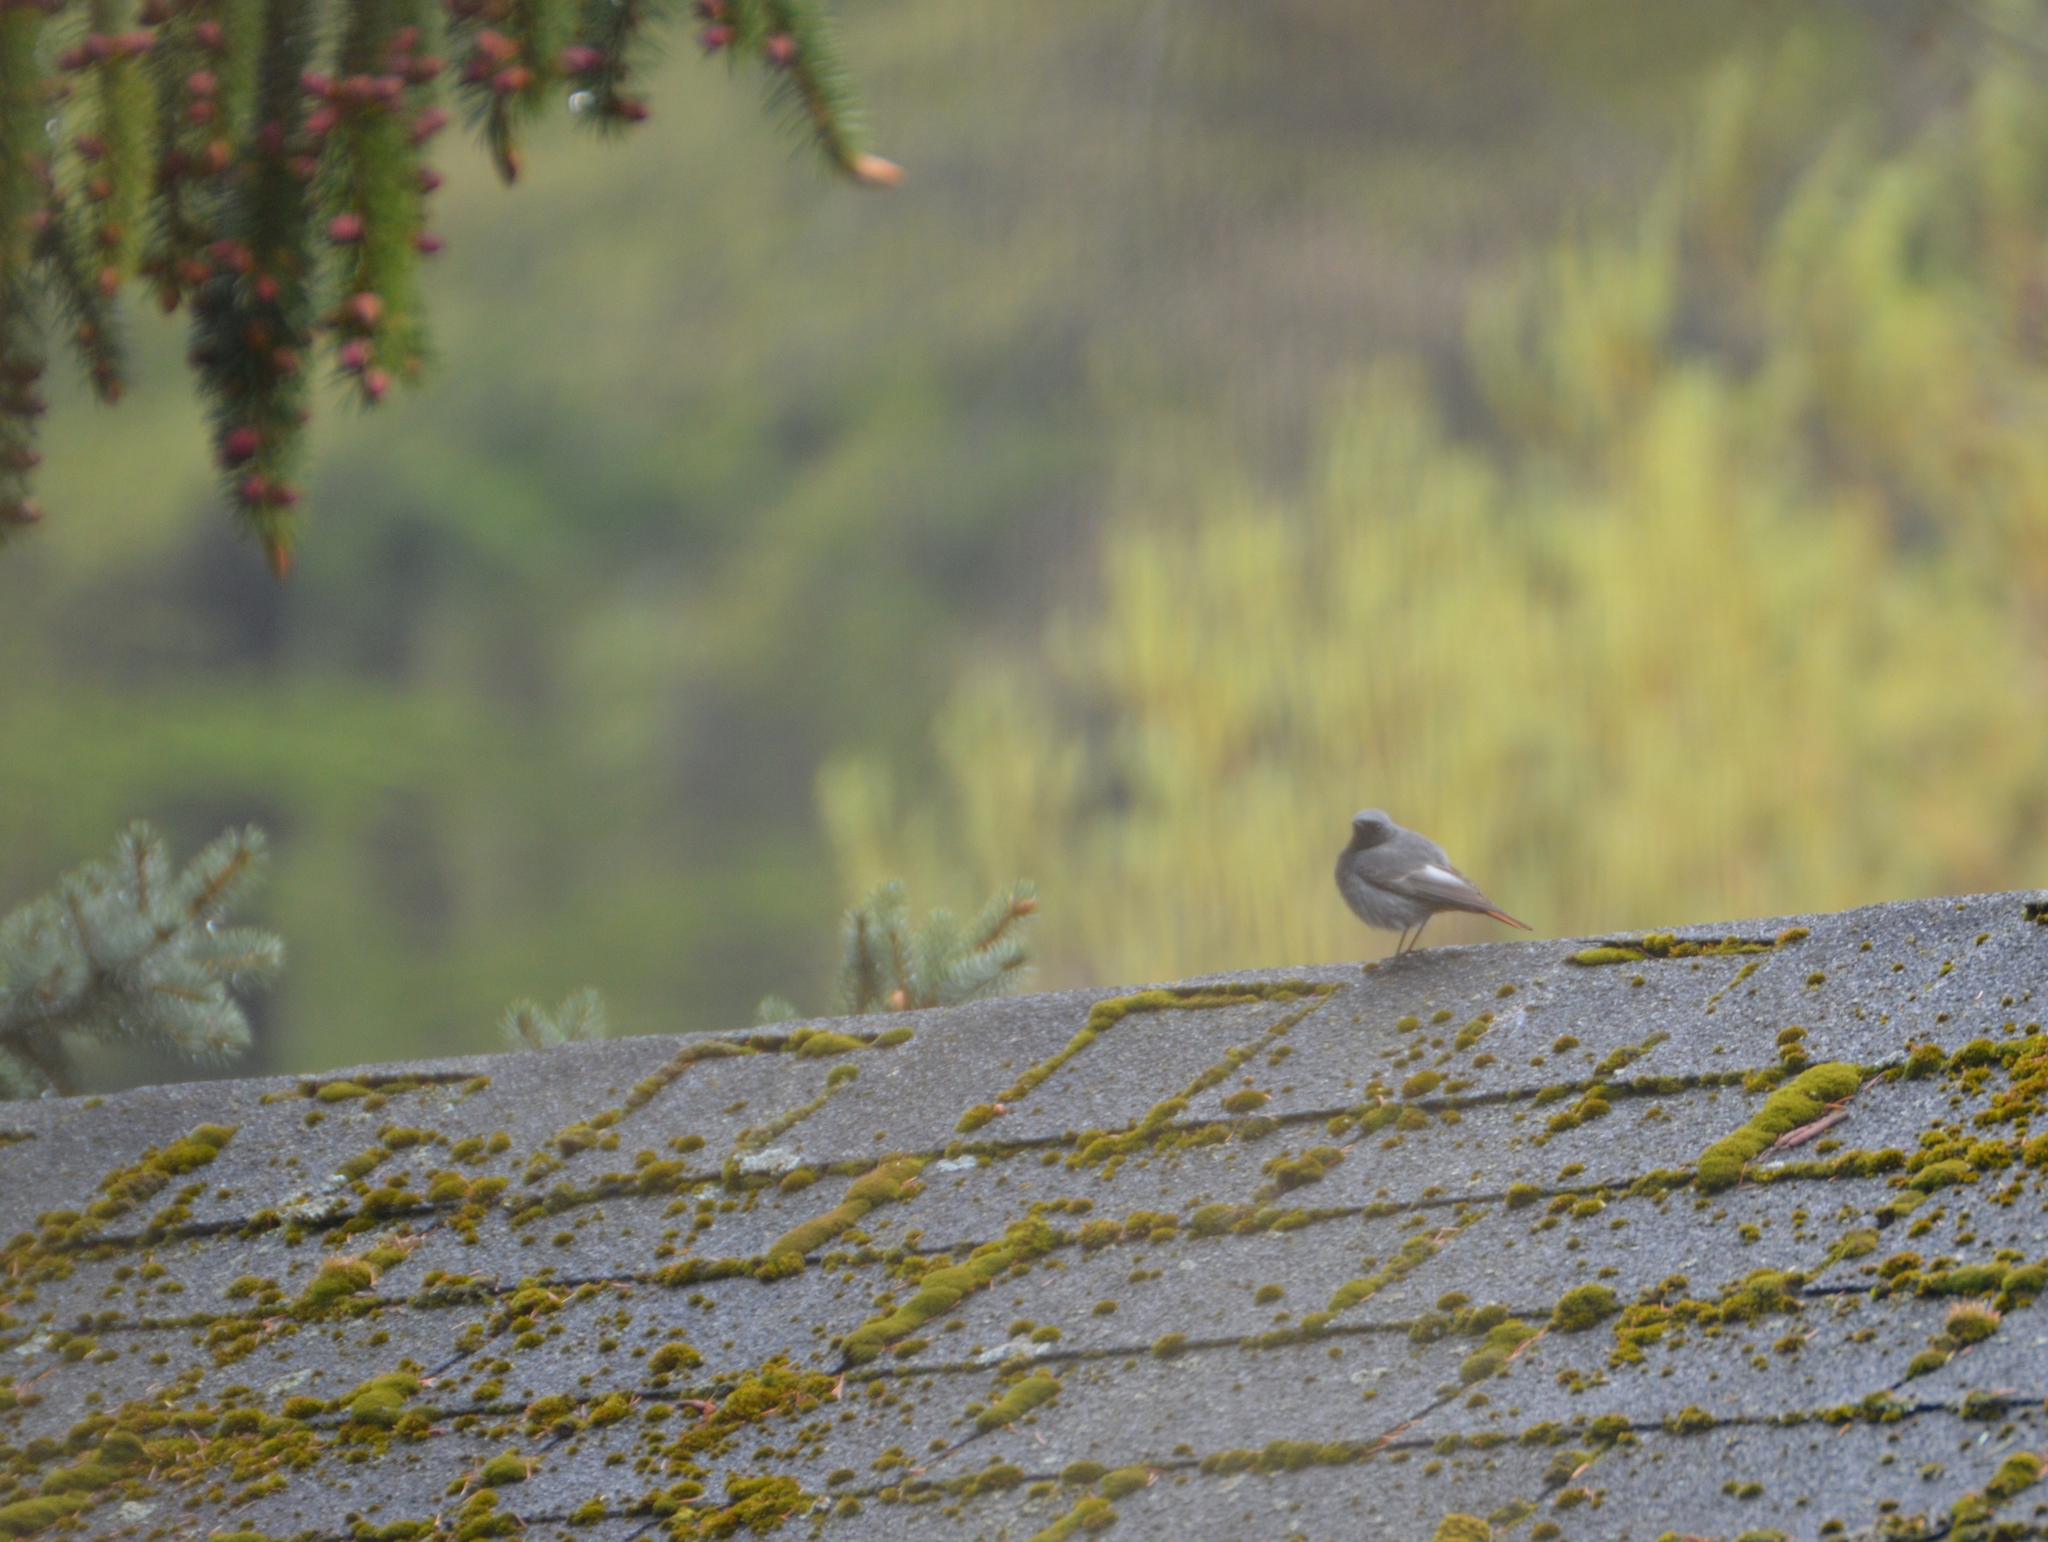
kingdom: Animalia
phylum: Chordata
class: Aves
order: Passeriformes
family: Muscicapidae
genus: Phoenicurus
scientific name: Phoenicurus ochruros
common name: Black redstart
